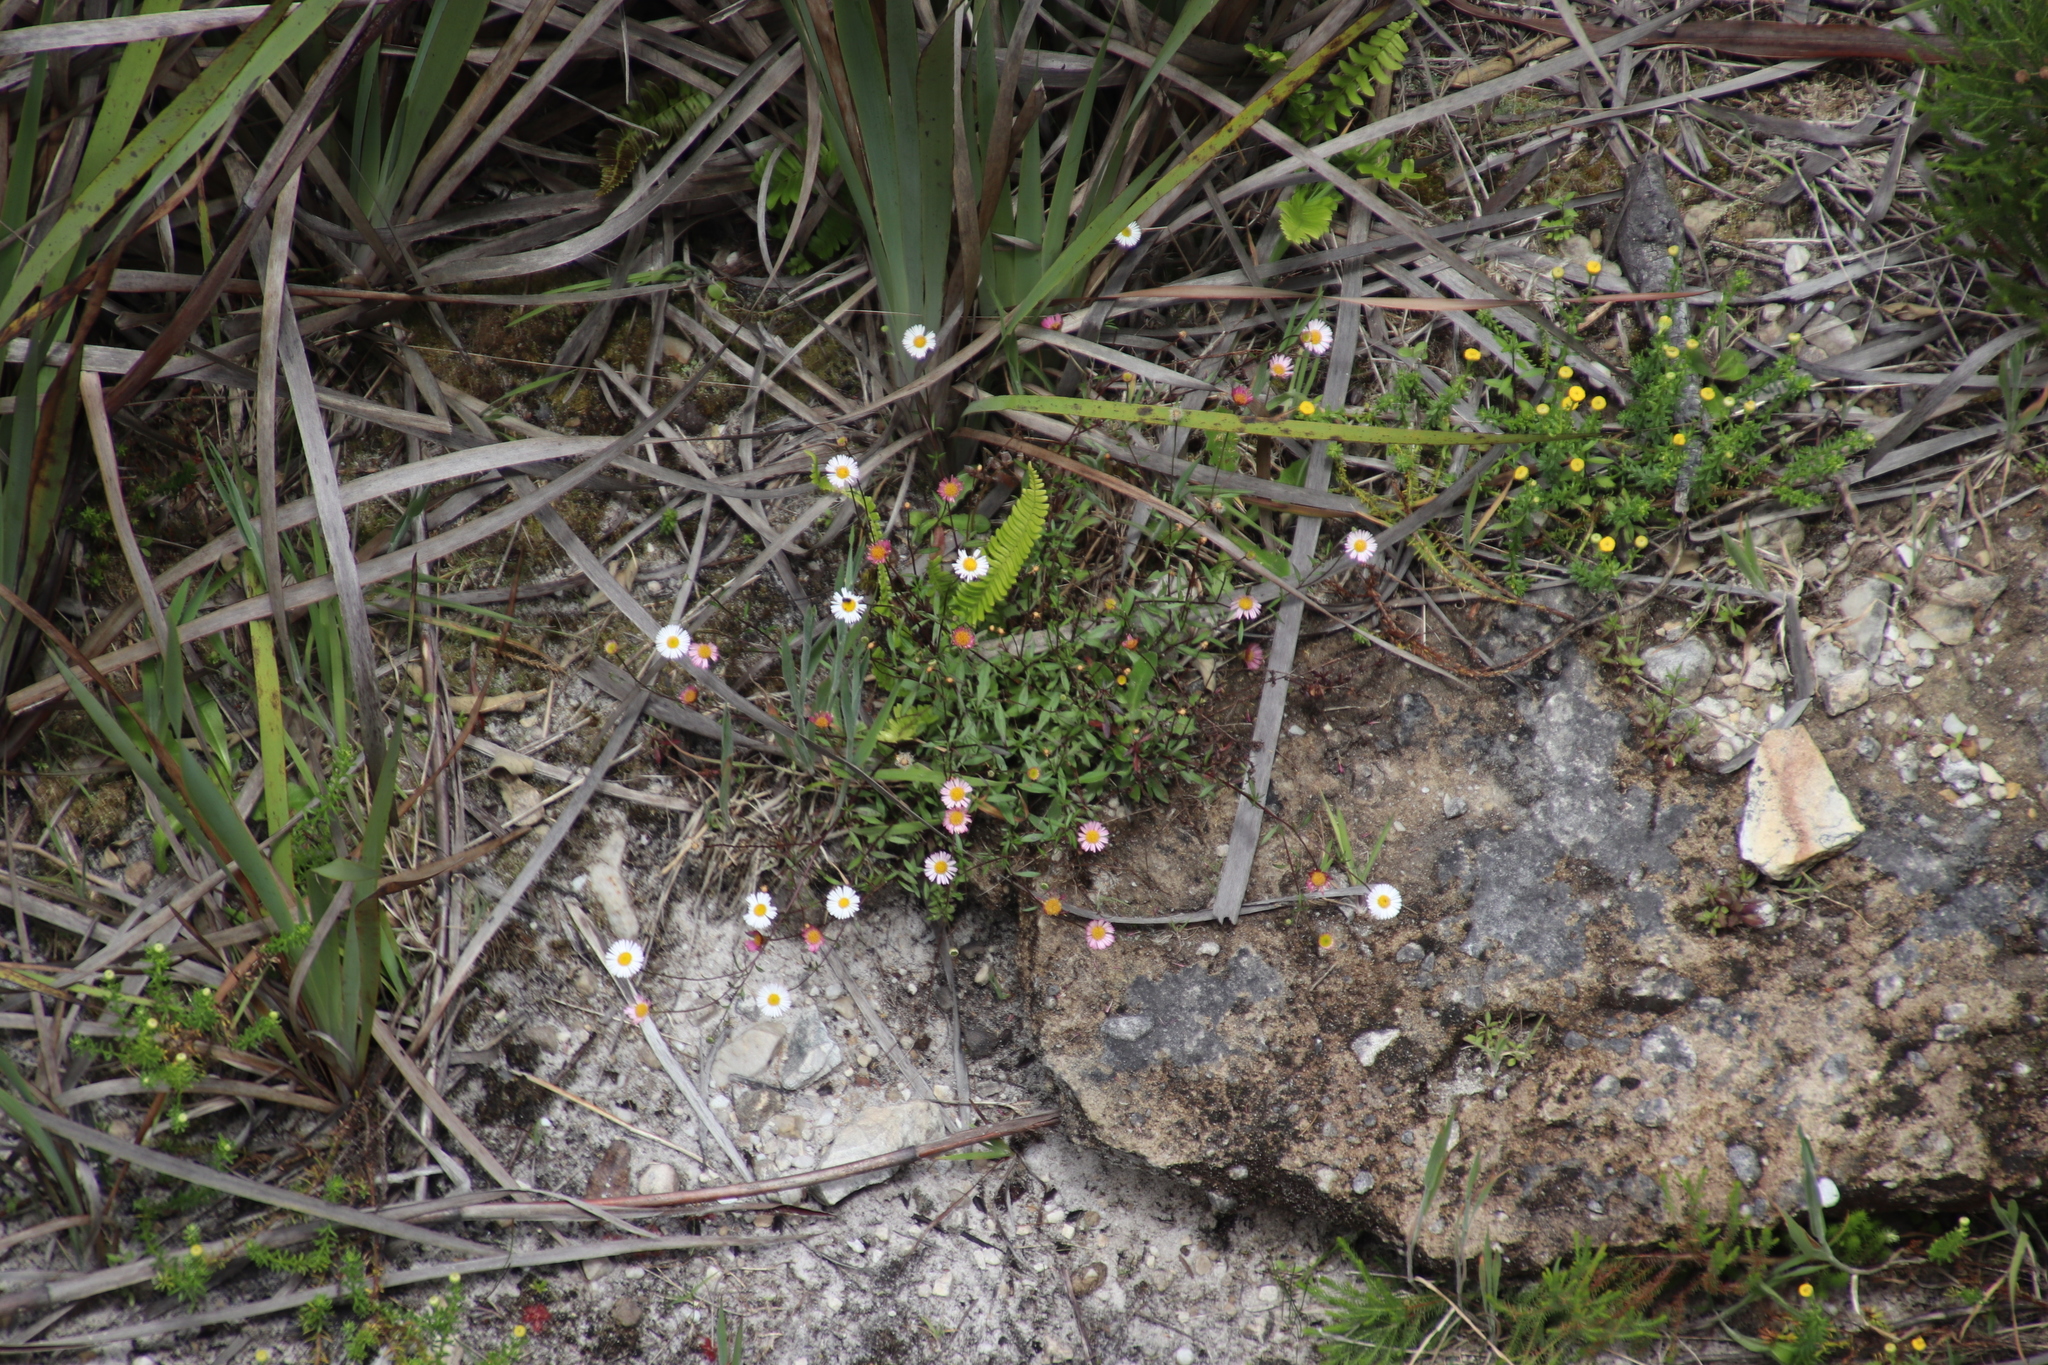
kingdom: Plantae
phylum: Tracheophyta
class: Magnoliopsida
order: Asterales
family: Asteraceae
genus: Erigeron
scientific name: Erigeron karvinskianus
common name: Mexican fleabane
